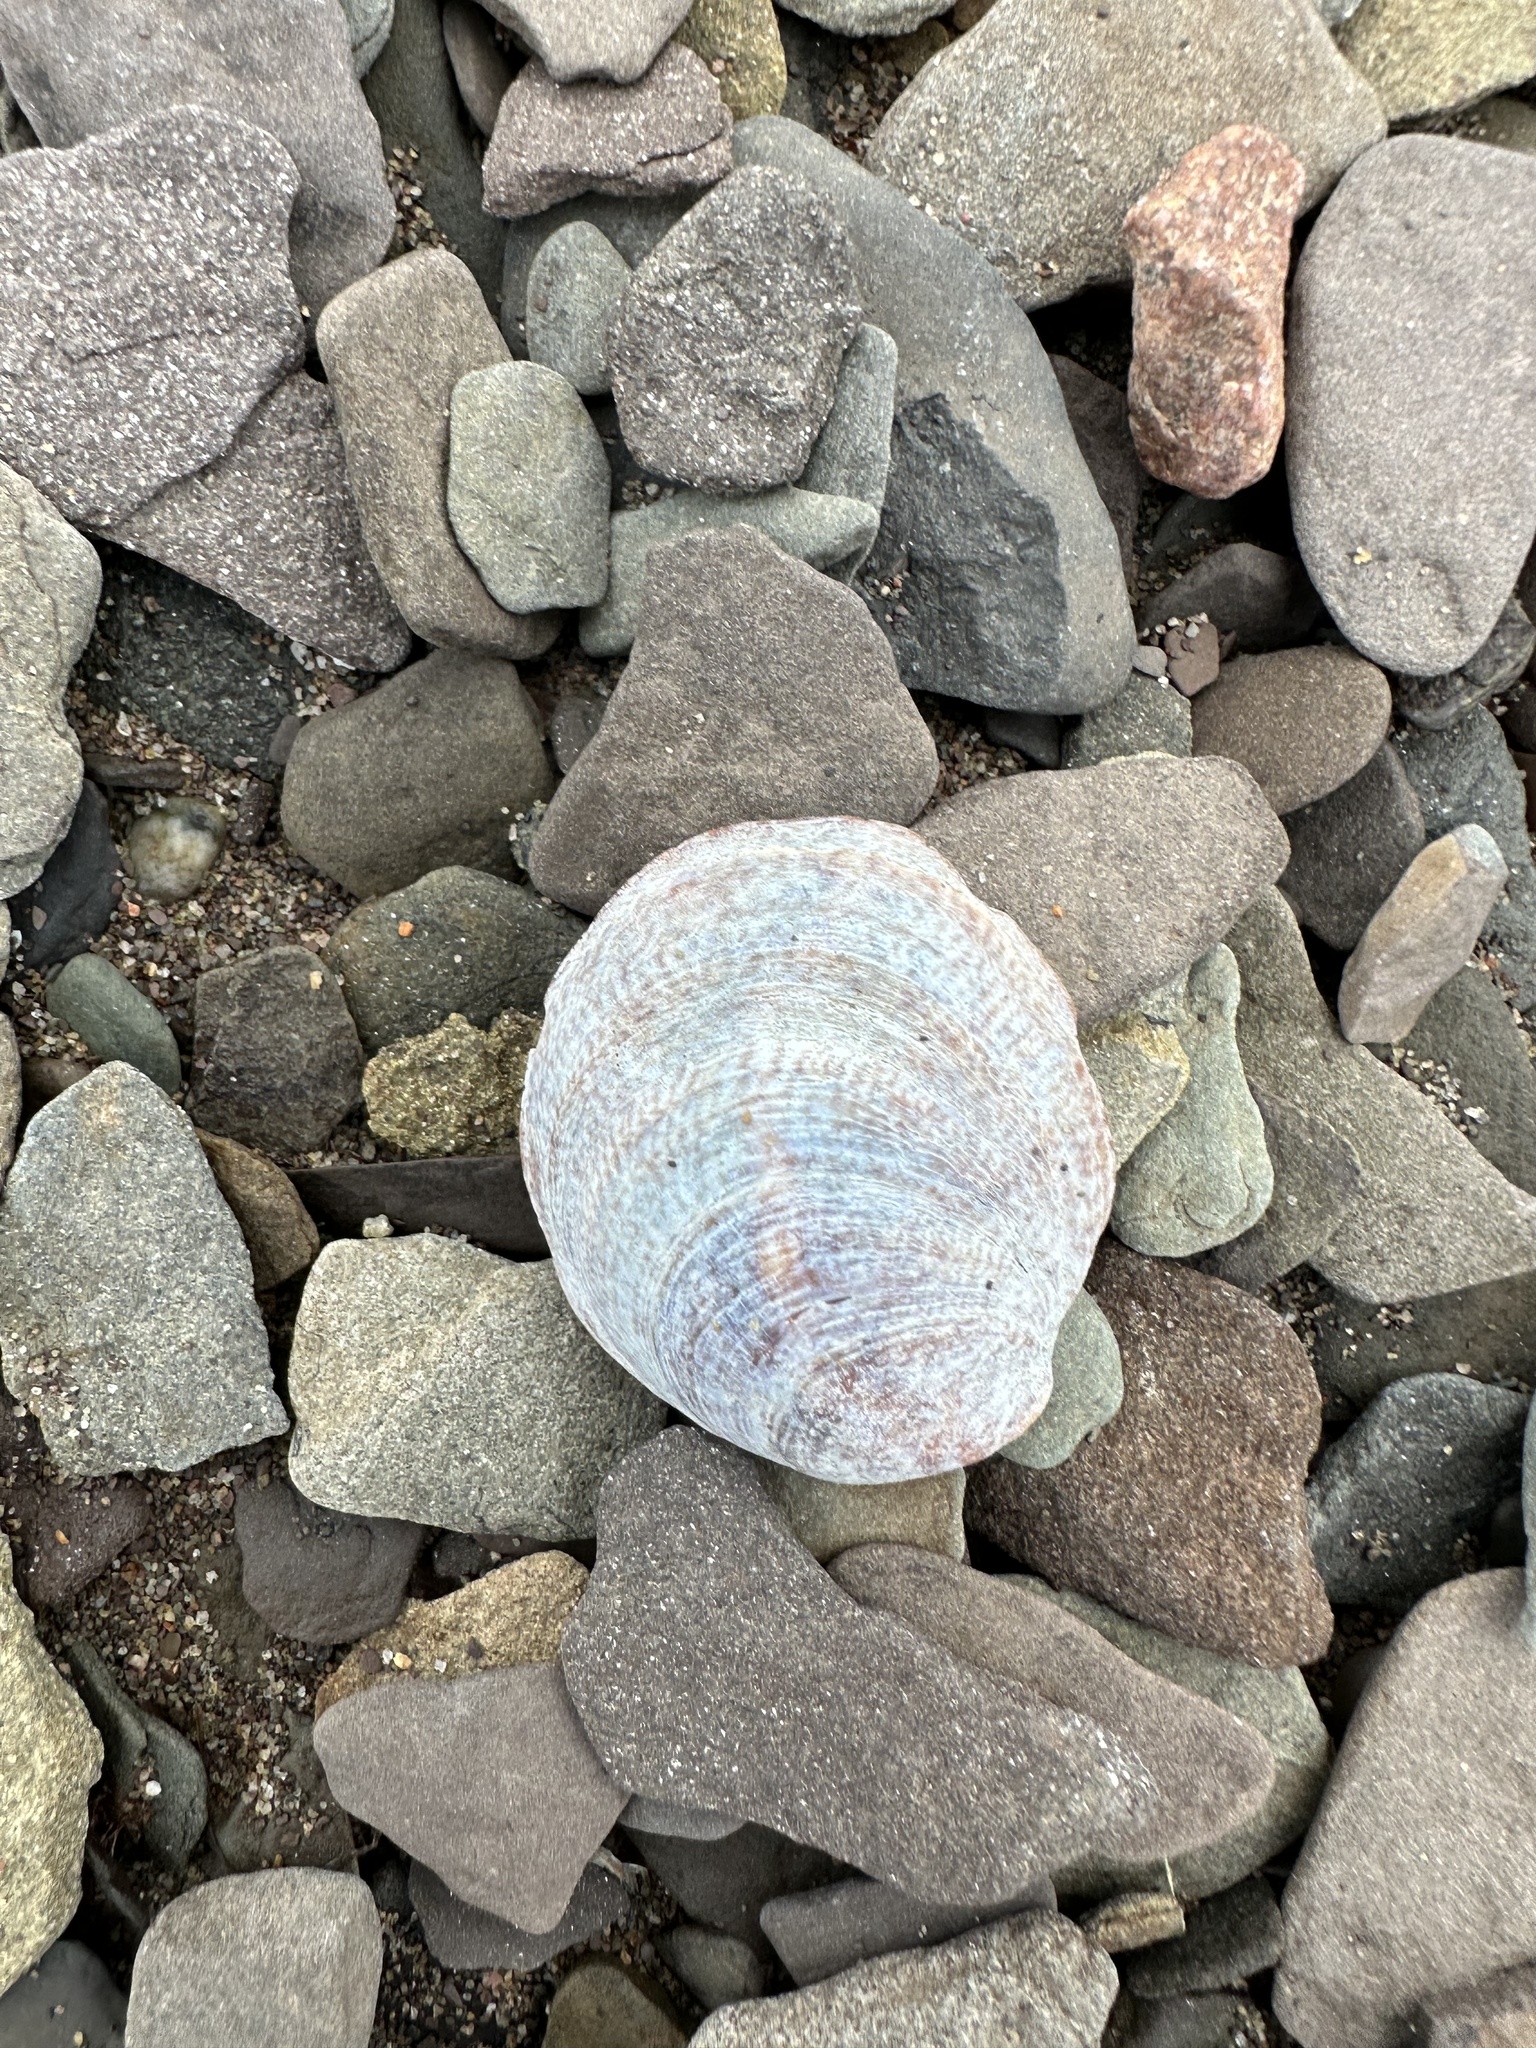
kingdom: Animalia
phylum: Mollusca
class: Gastropoda
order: Littorinimorpha
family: Calyptraeidae
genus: Crepidula
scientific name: Crepidula fornicata
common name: Slipper limpet
